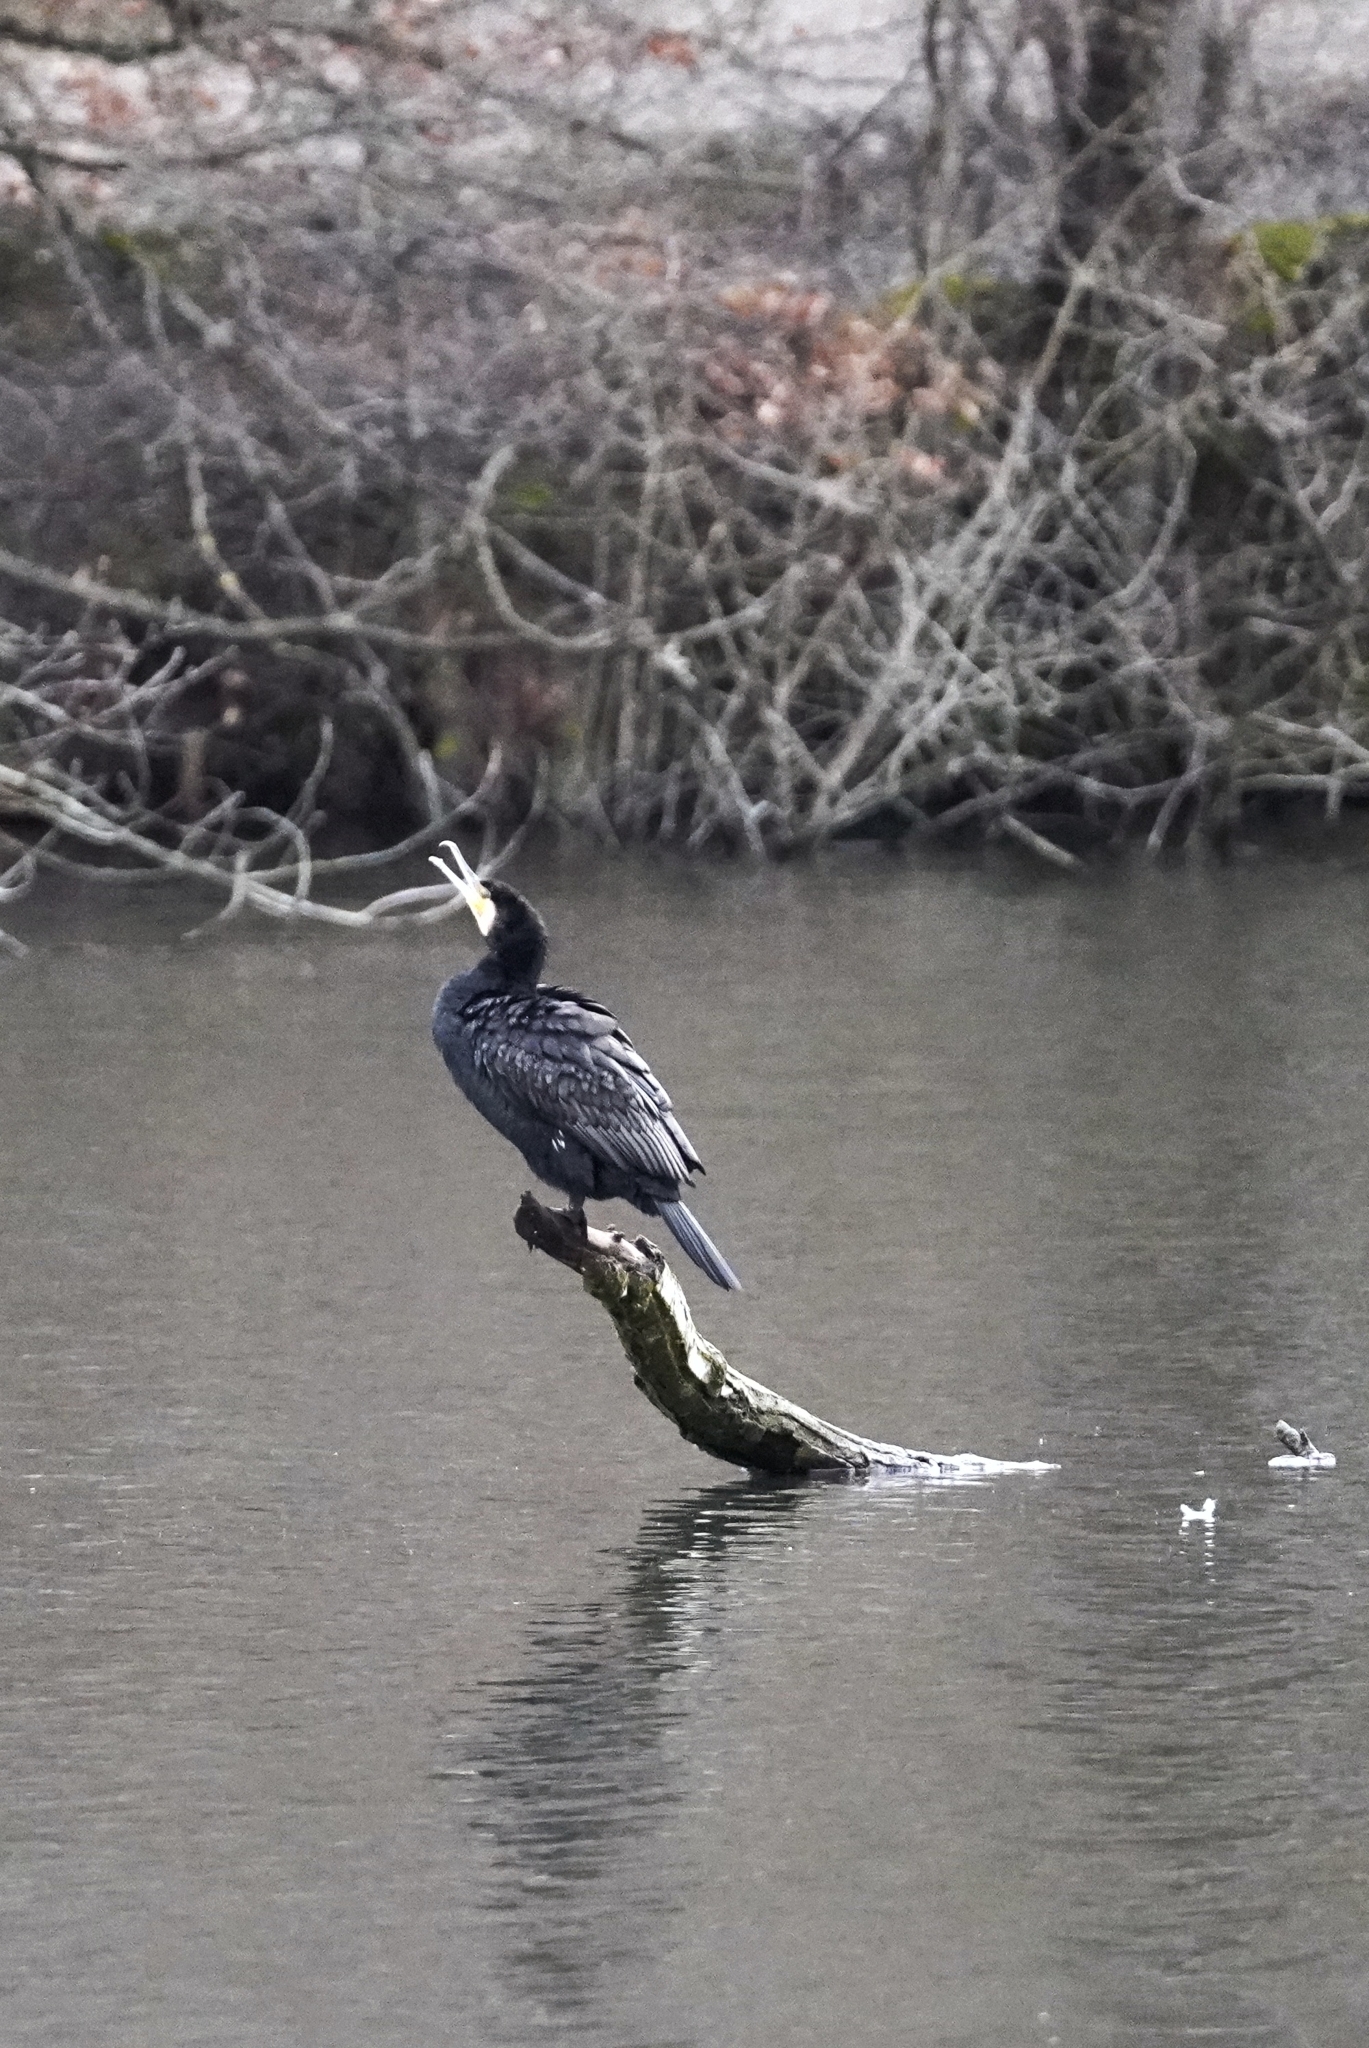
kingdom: Animalia
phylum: Chordata
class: Aves
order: Suliformes
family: Phalacrocoracidae
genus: Phalacrocorax
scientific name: Phalacrocorax carbo
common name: Great cormorant
